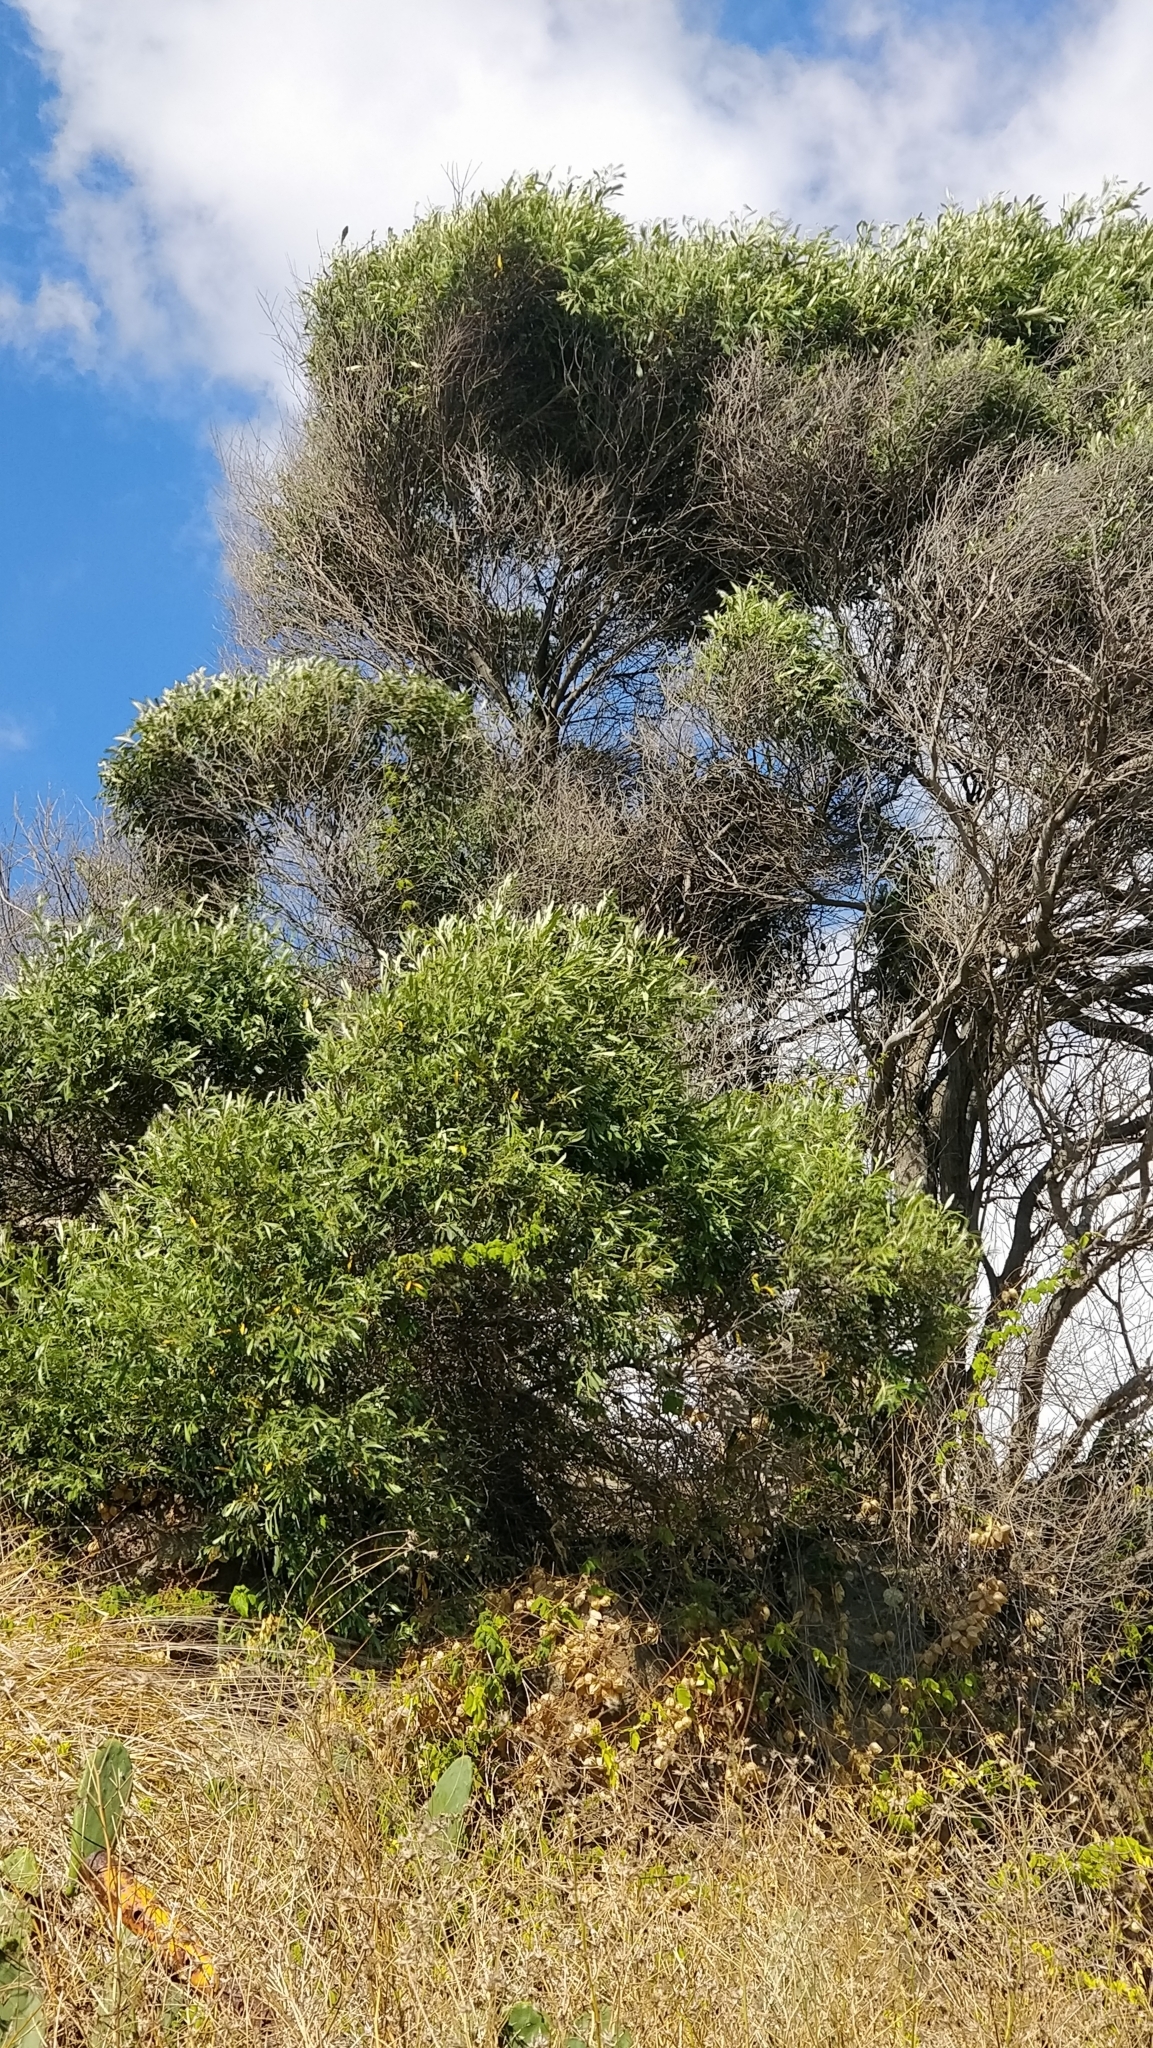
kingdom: Plantae
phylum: Tracheophyta
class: Magnoliopsida
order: Lamiales
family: Oleaceae
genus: Olea
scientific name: Olea europaea
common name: Olive
